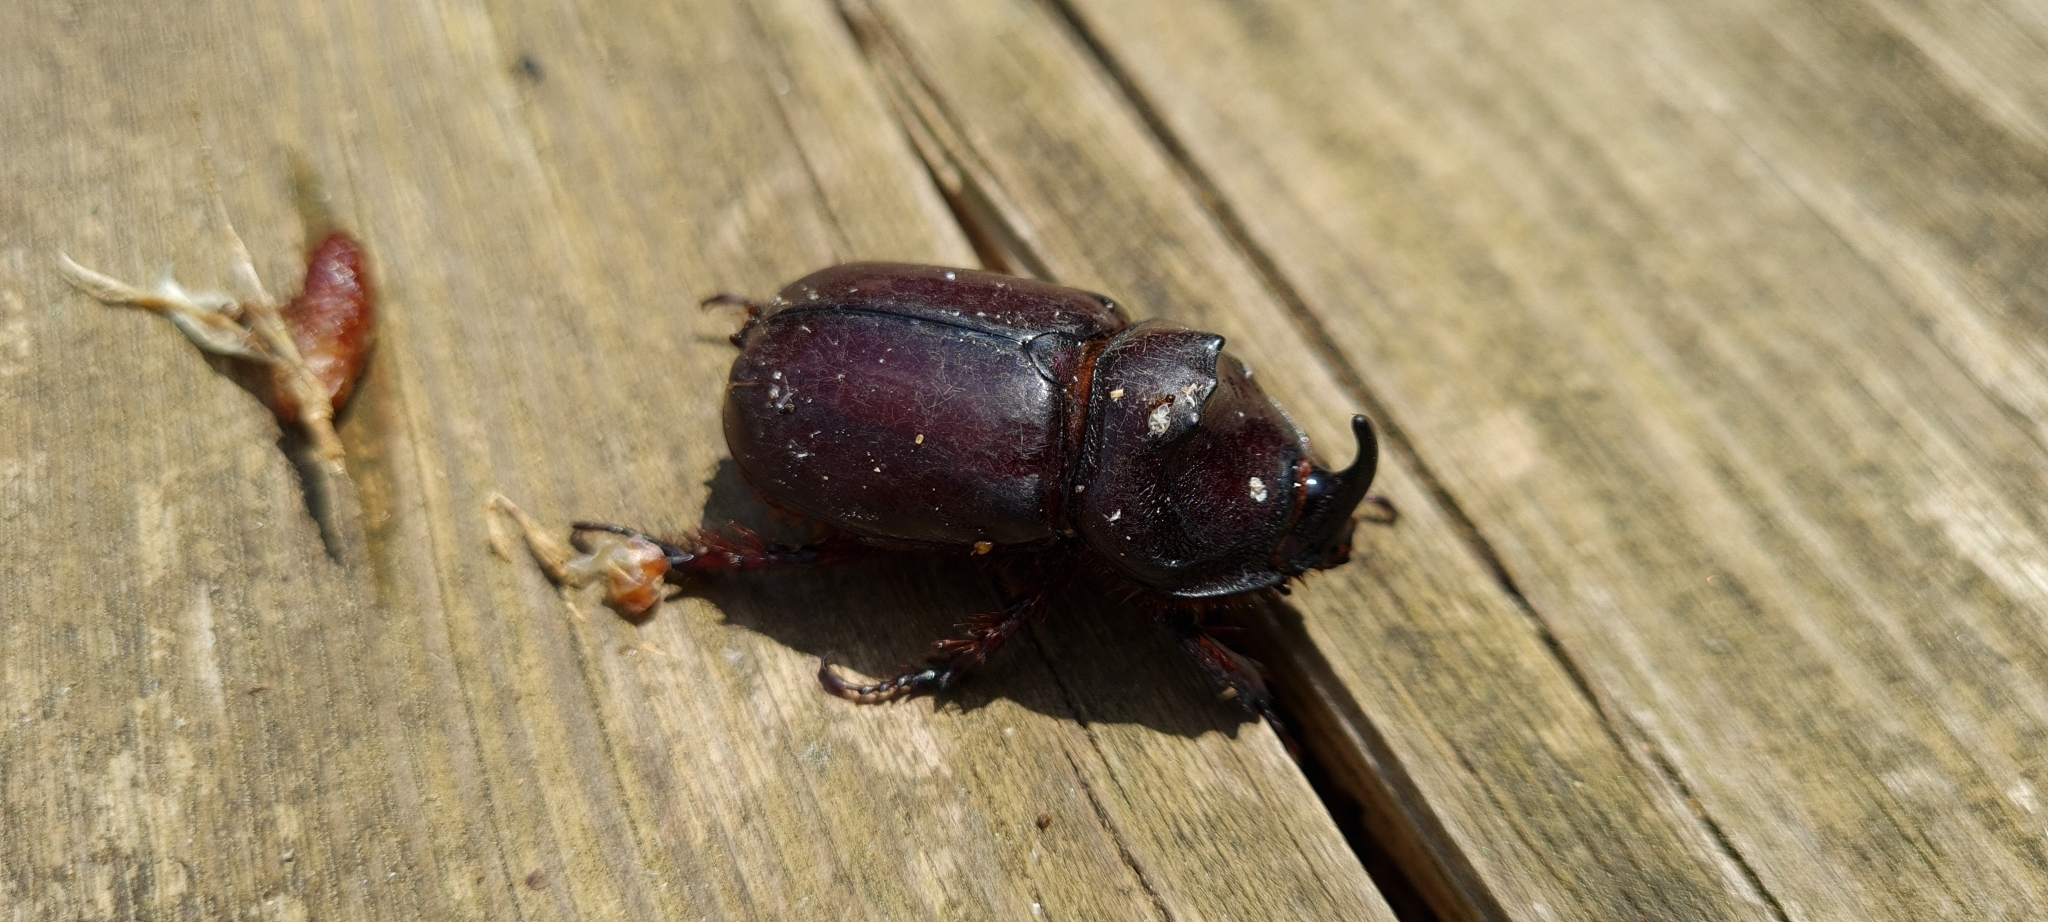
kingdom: Animalia
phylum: Arthropoda
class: Insecta
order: Coleoptera
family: Scarabaeidae
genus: Oryctes
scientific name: Oryctes nasicornis
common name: European rhinoceros beetle
